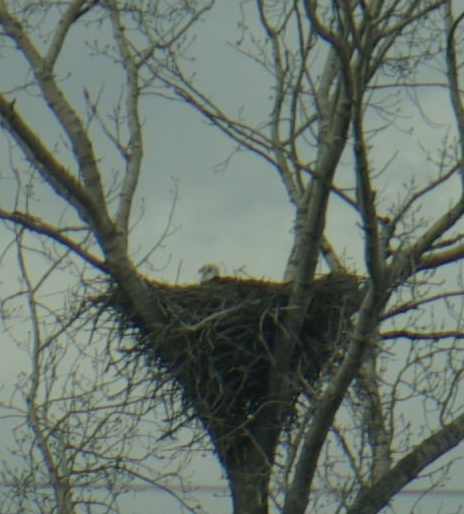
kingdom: Animalia
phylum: Chordata
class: Aves
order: Accipitriformes
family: Accipitridae
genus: Haliaeetus
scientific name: Haliaeetus leucocephalus
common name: Bald eagle
